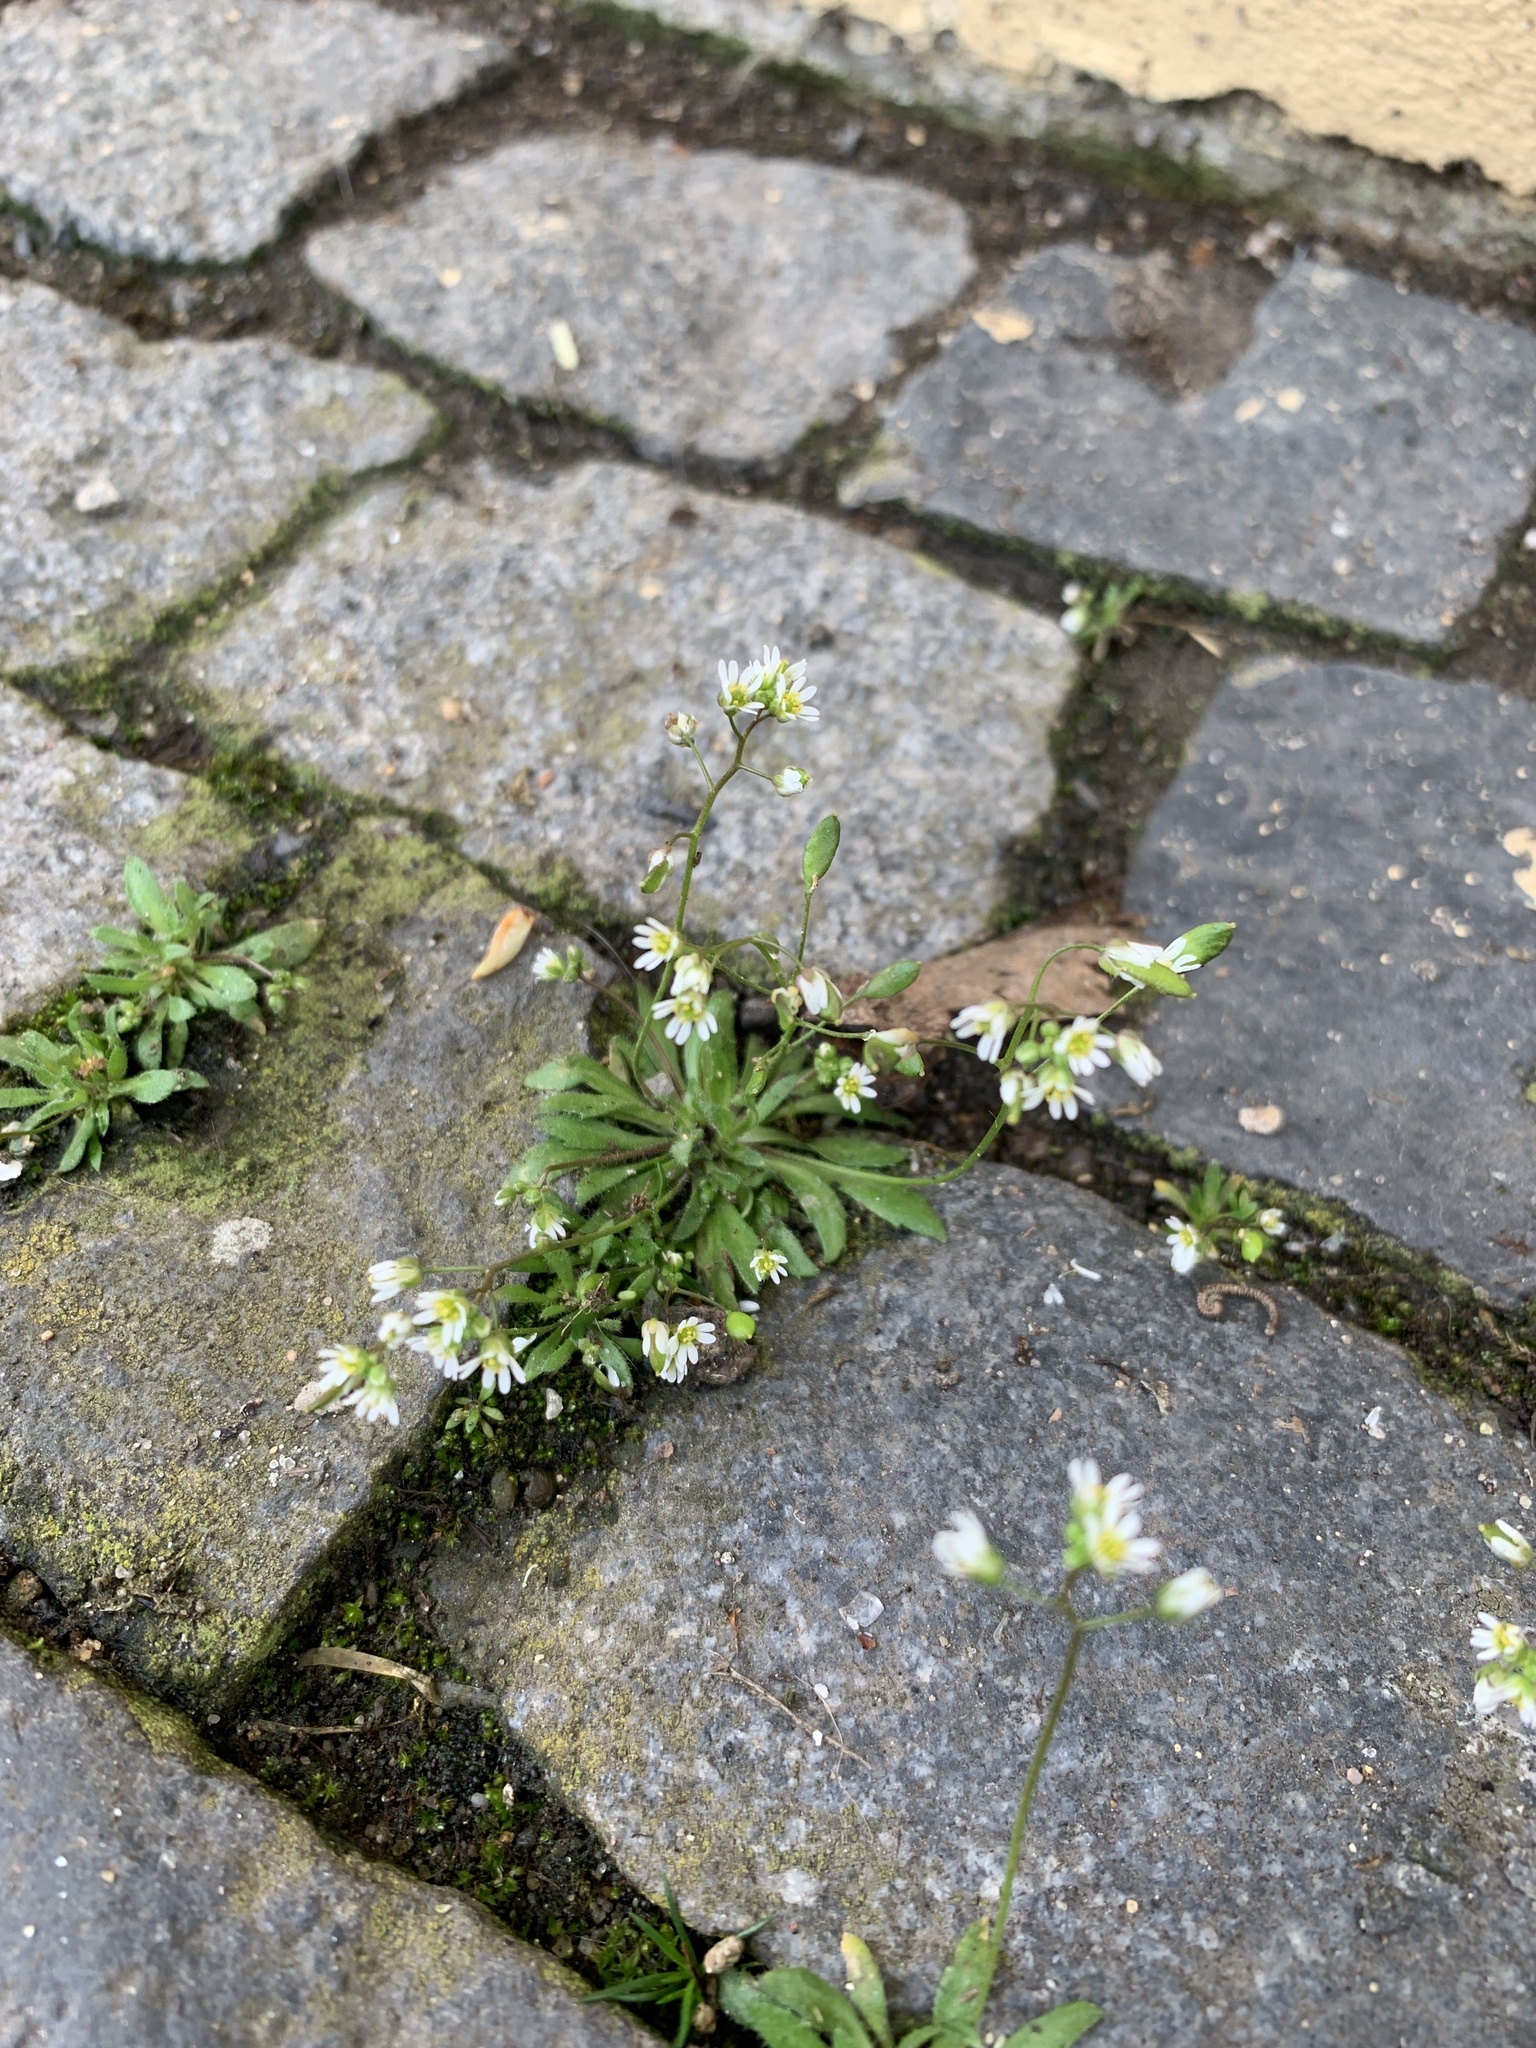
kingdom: Plantae
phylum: Tracheophyta
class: Magnoliopsida
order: Brassicales
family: Brassicaceae
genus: Draba
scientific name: Draba verna
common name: Spring draba
